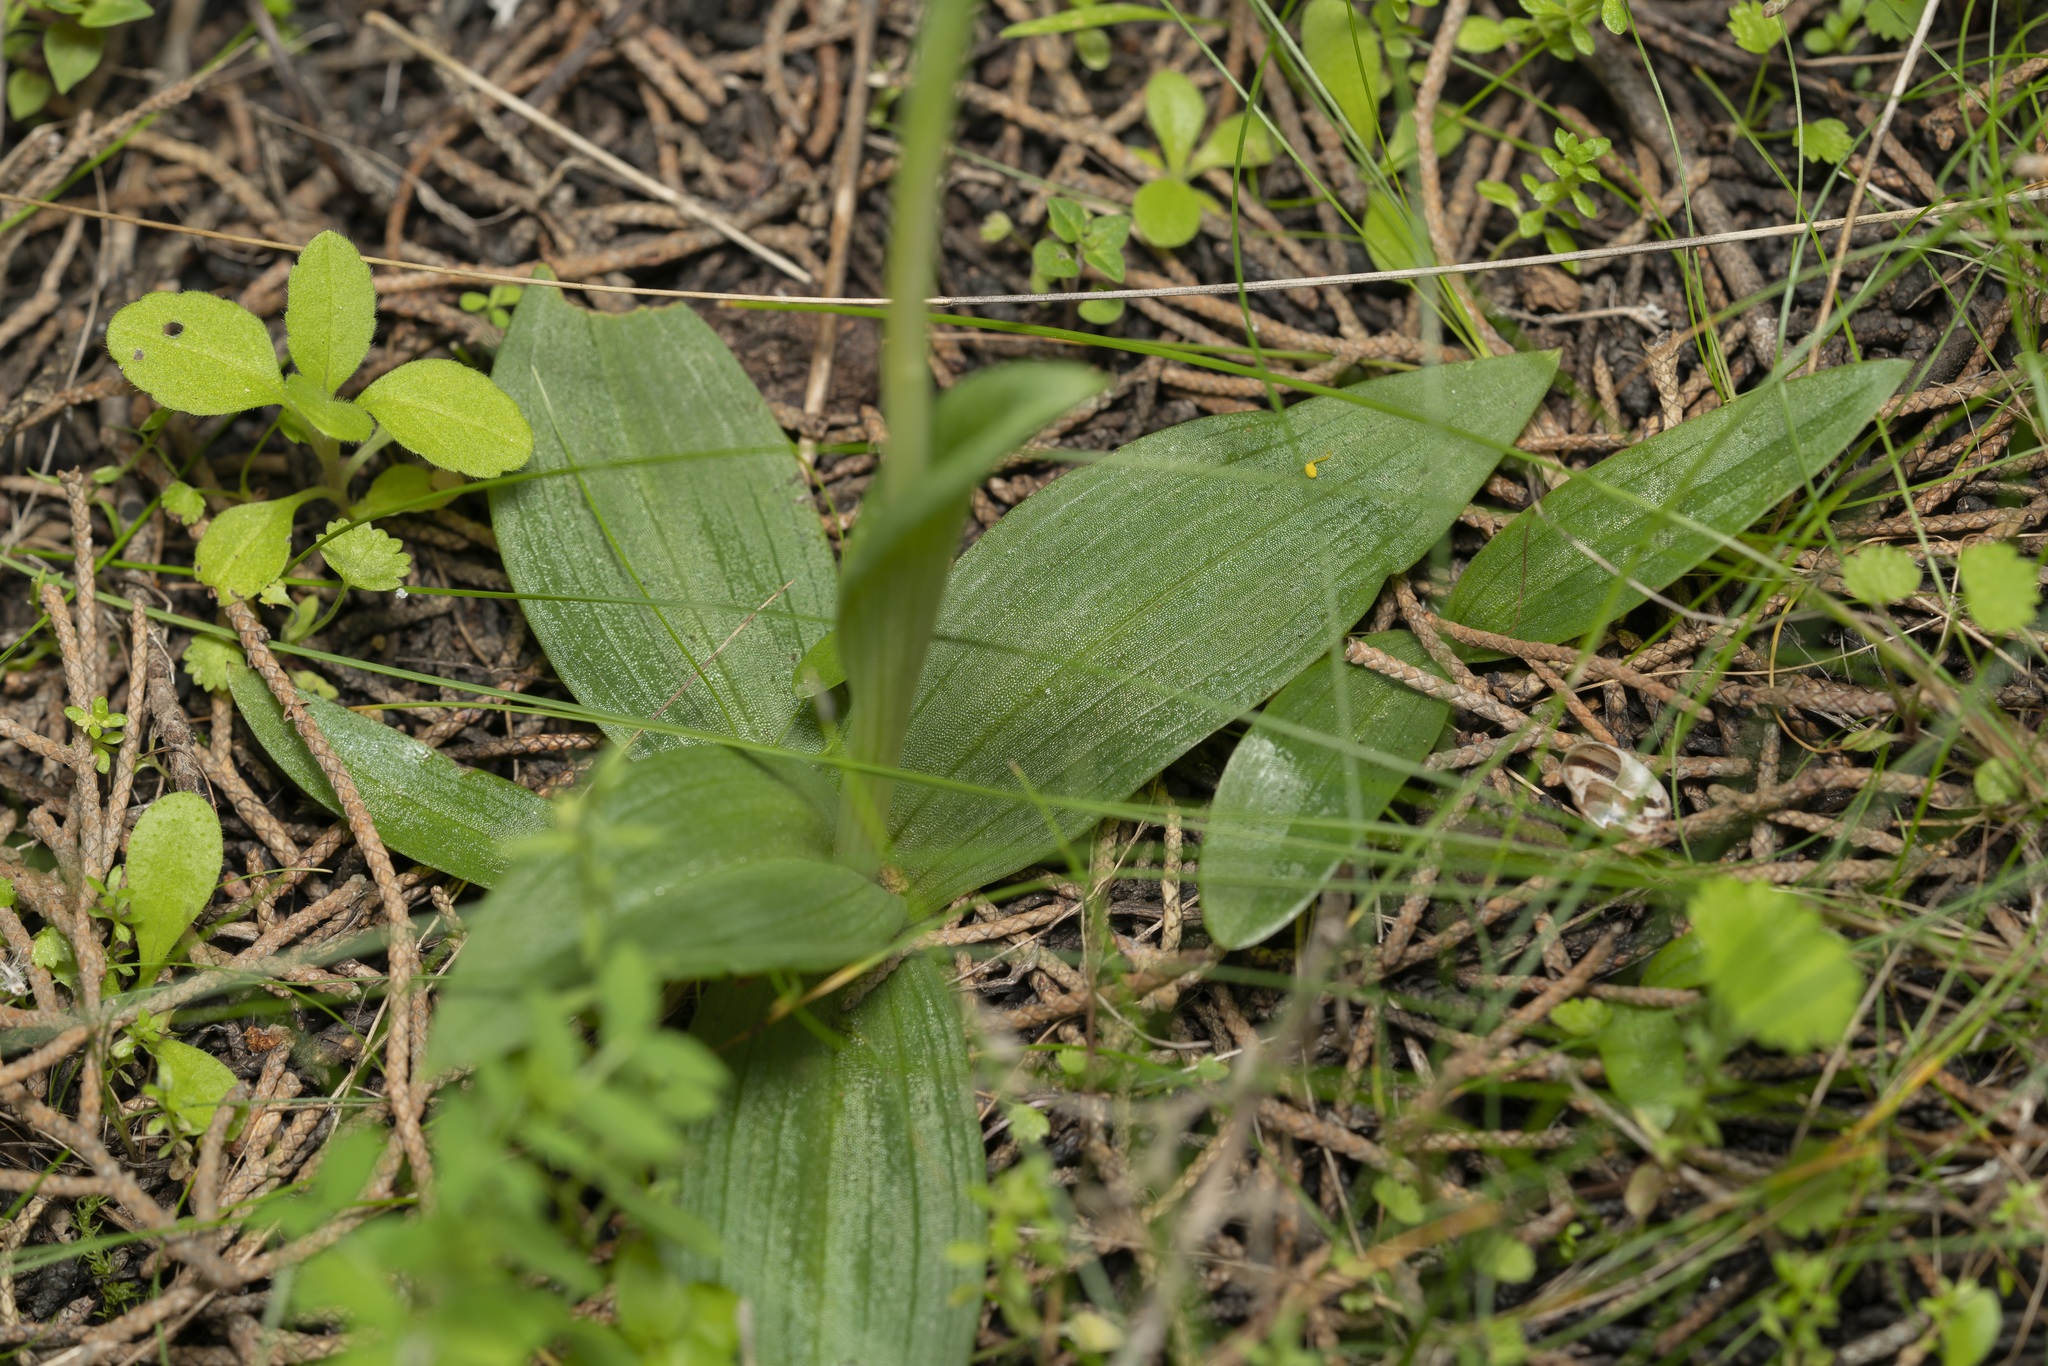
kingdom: Plantae
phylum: Tracheophyta
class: Liliopsida
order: Asparagales
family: Orchidaceae
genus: Ophrys
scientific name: Ophrys lutea
